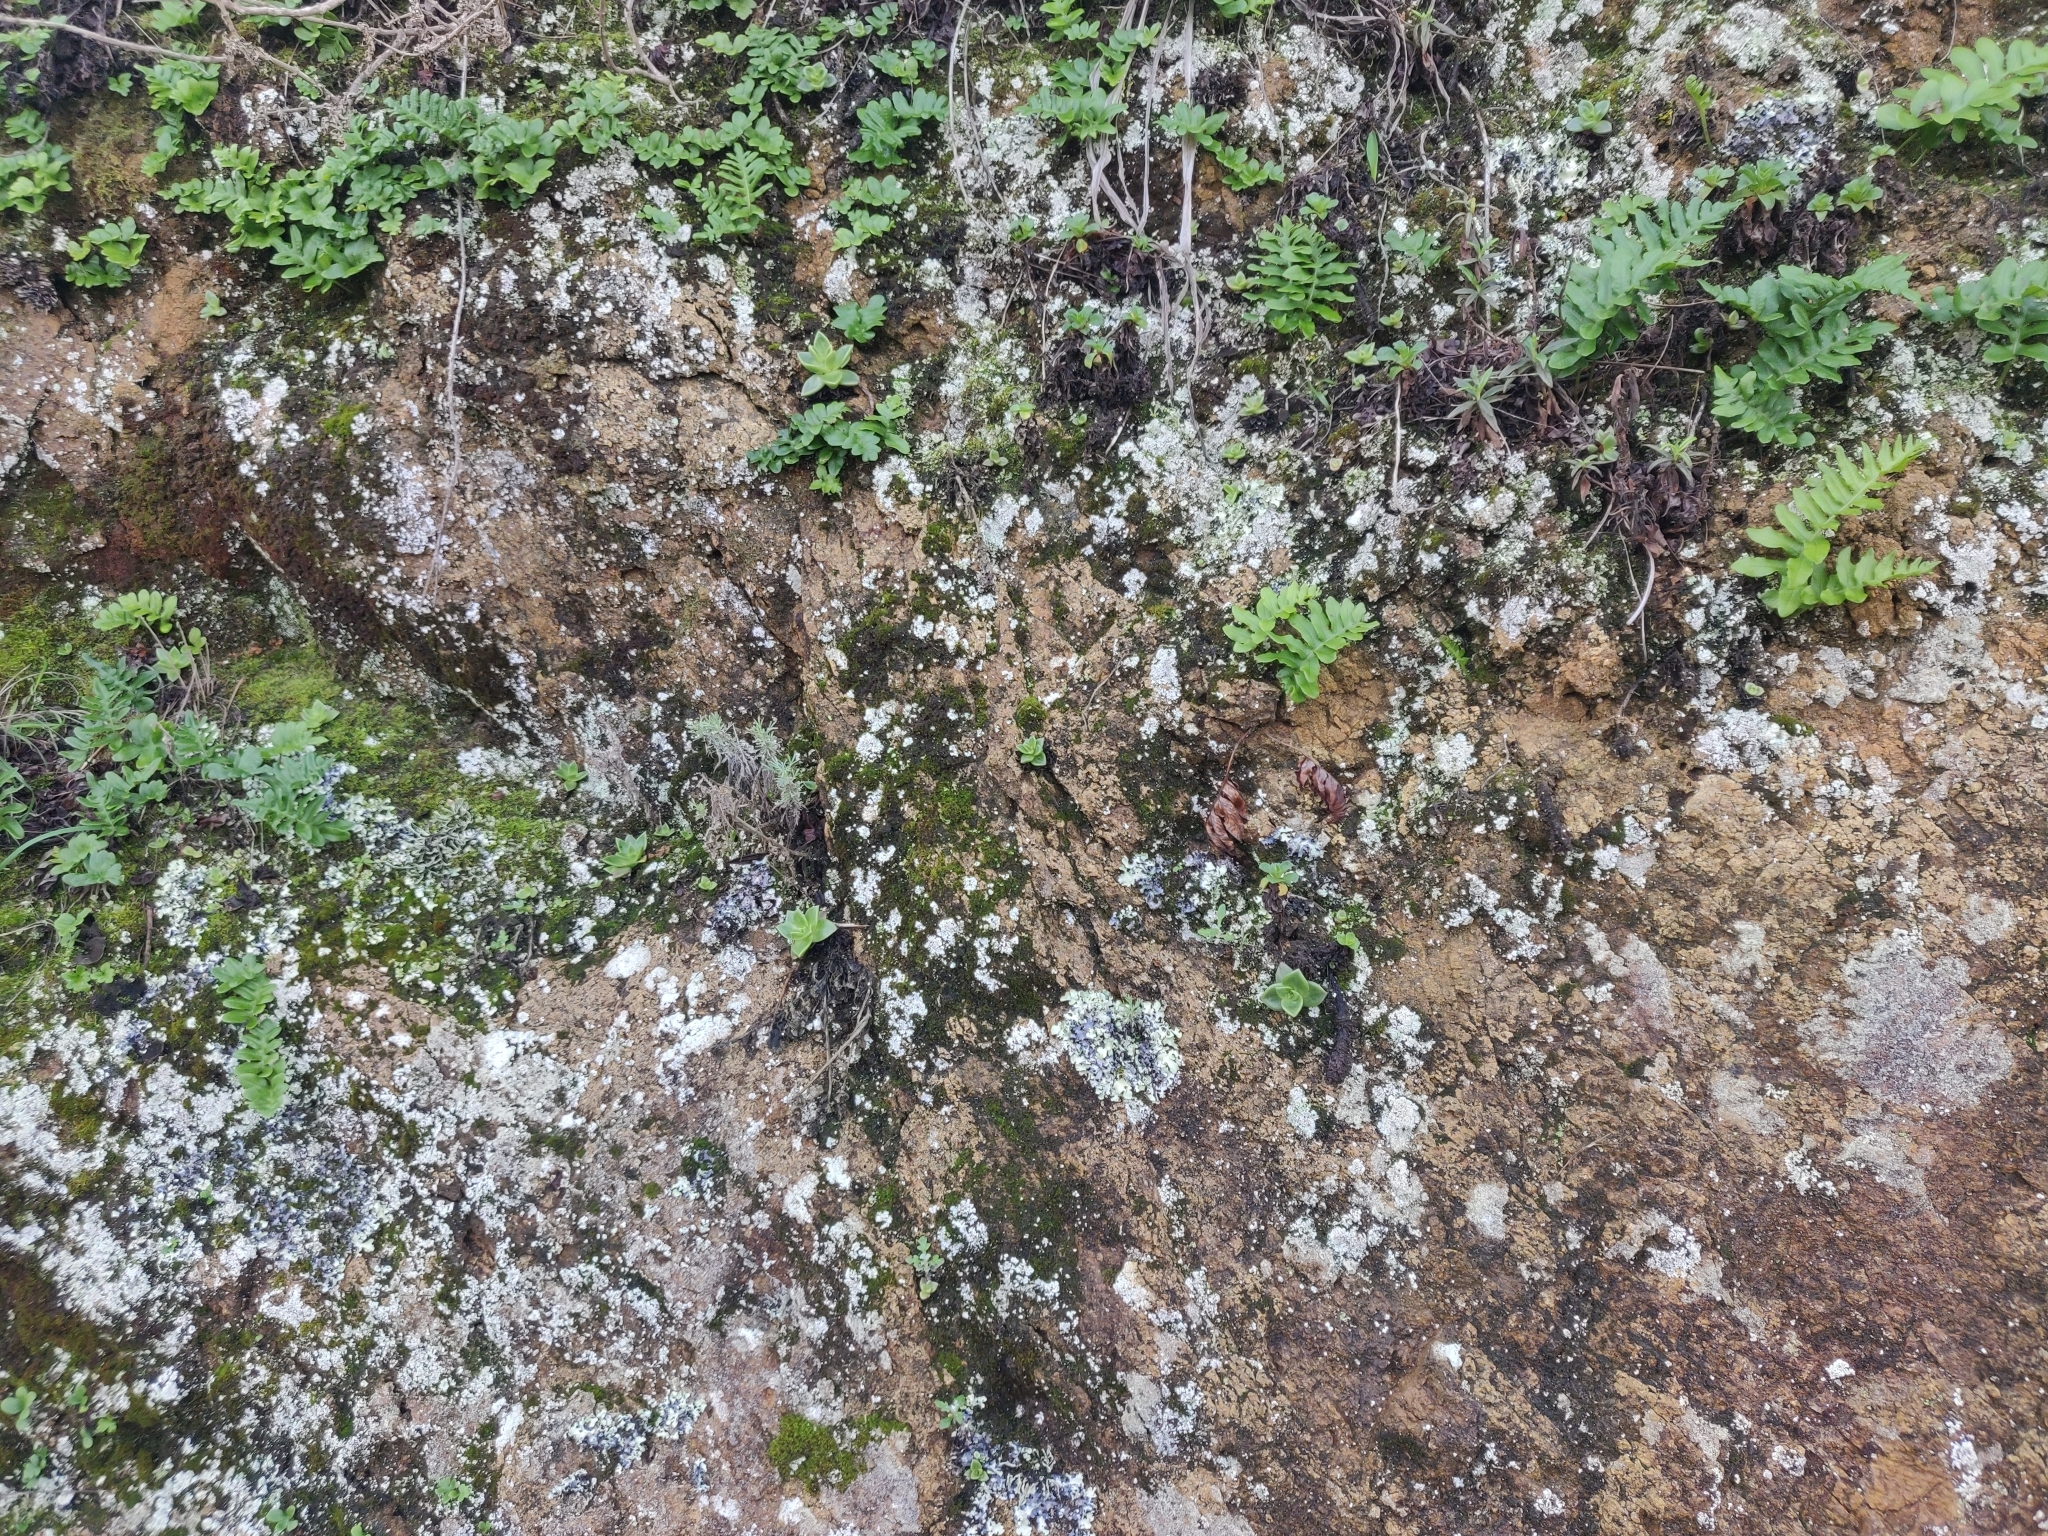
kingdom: Plantae
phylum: Tracheophyta
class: Magnoliopsida
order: Saxifragales
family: Crassulaceae
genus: Dudleya
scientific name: Dudleya farinosa
